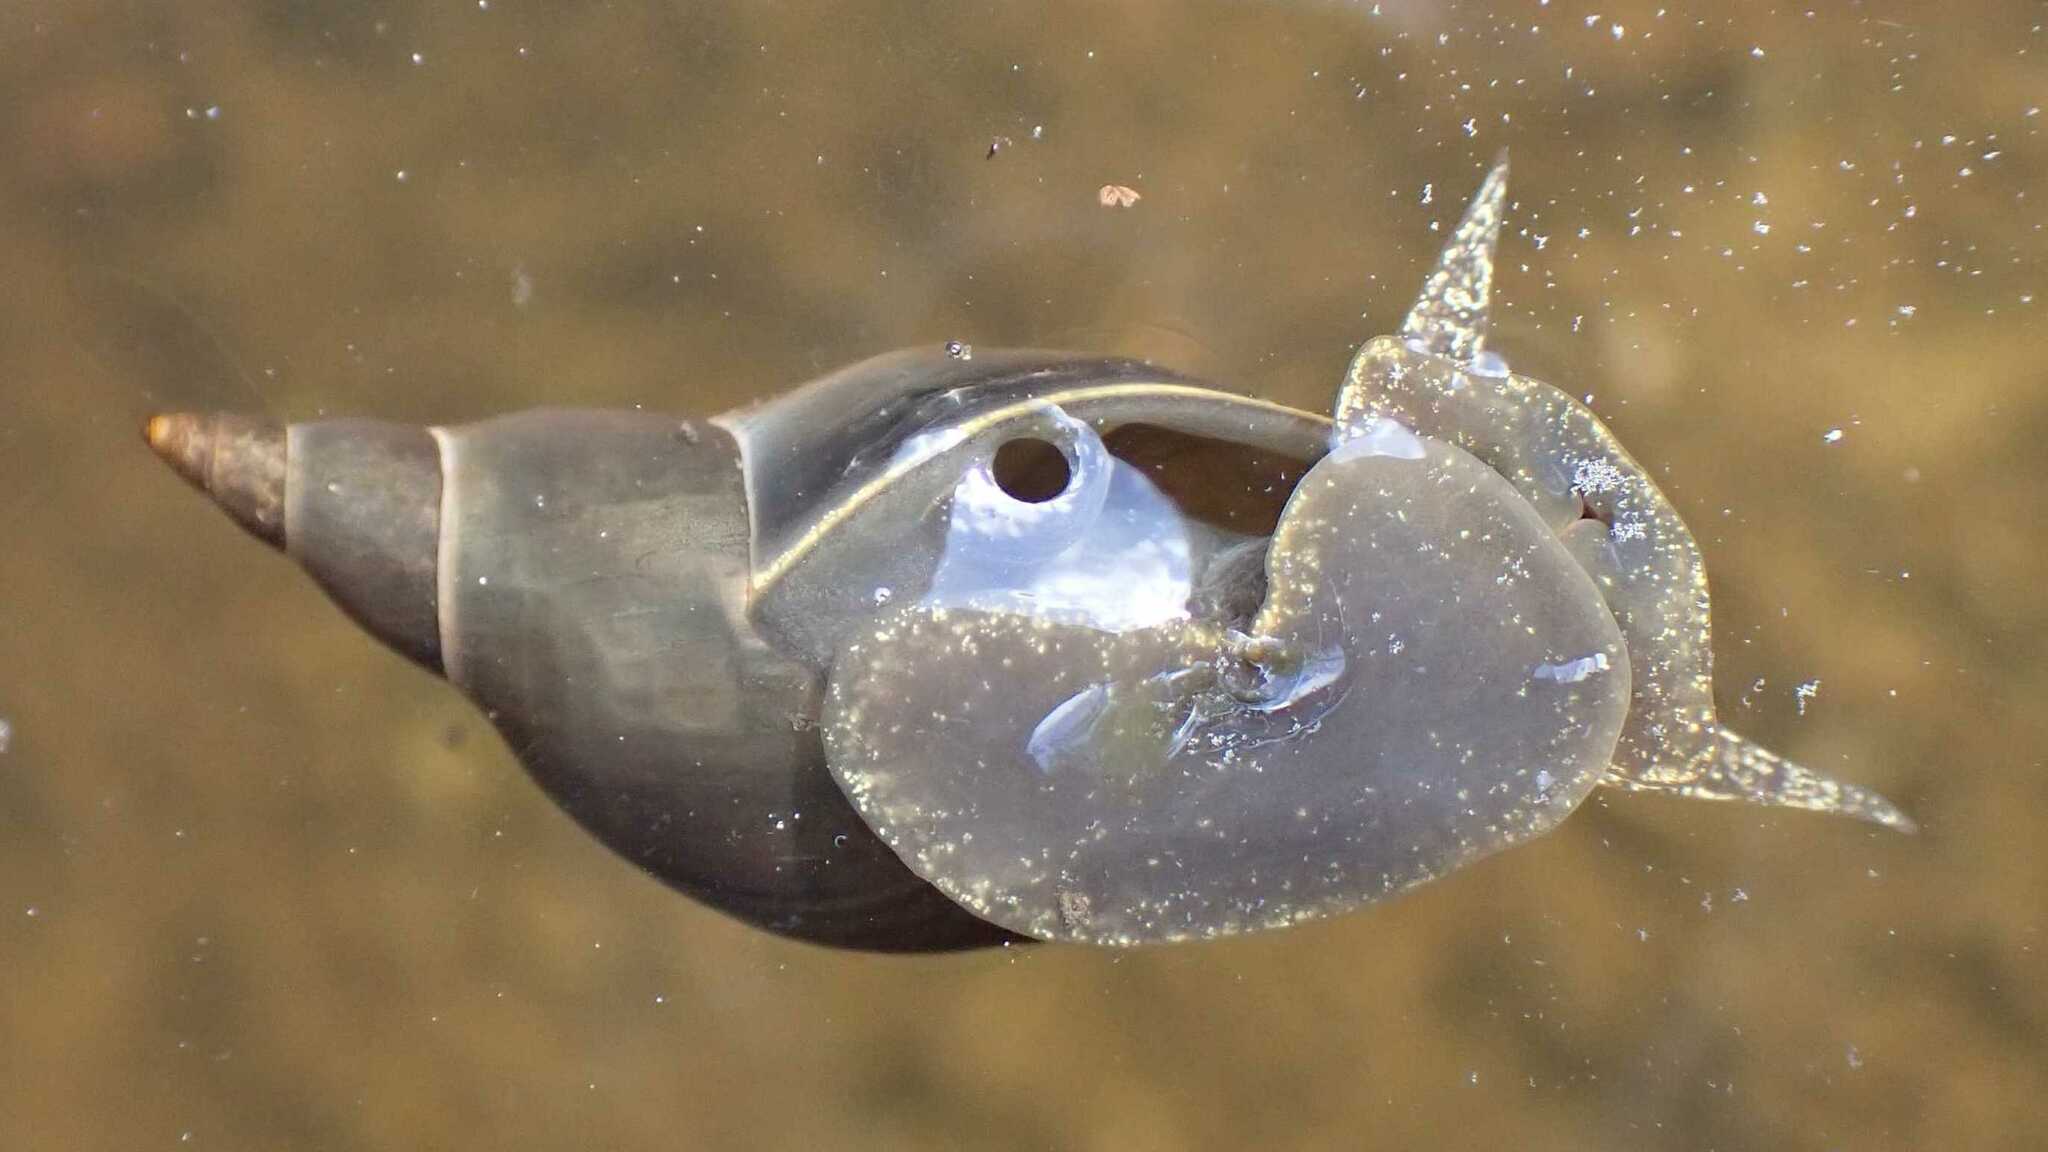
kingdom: Animalia
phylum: Mollusca
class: Gastropoda
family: Lymnaeidae
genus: Lymnaea
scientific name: Lymnaea stagnalis
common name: Great pond snail
